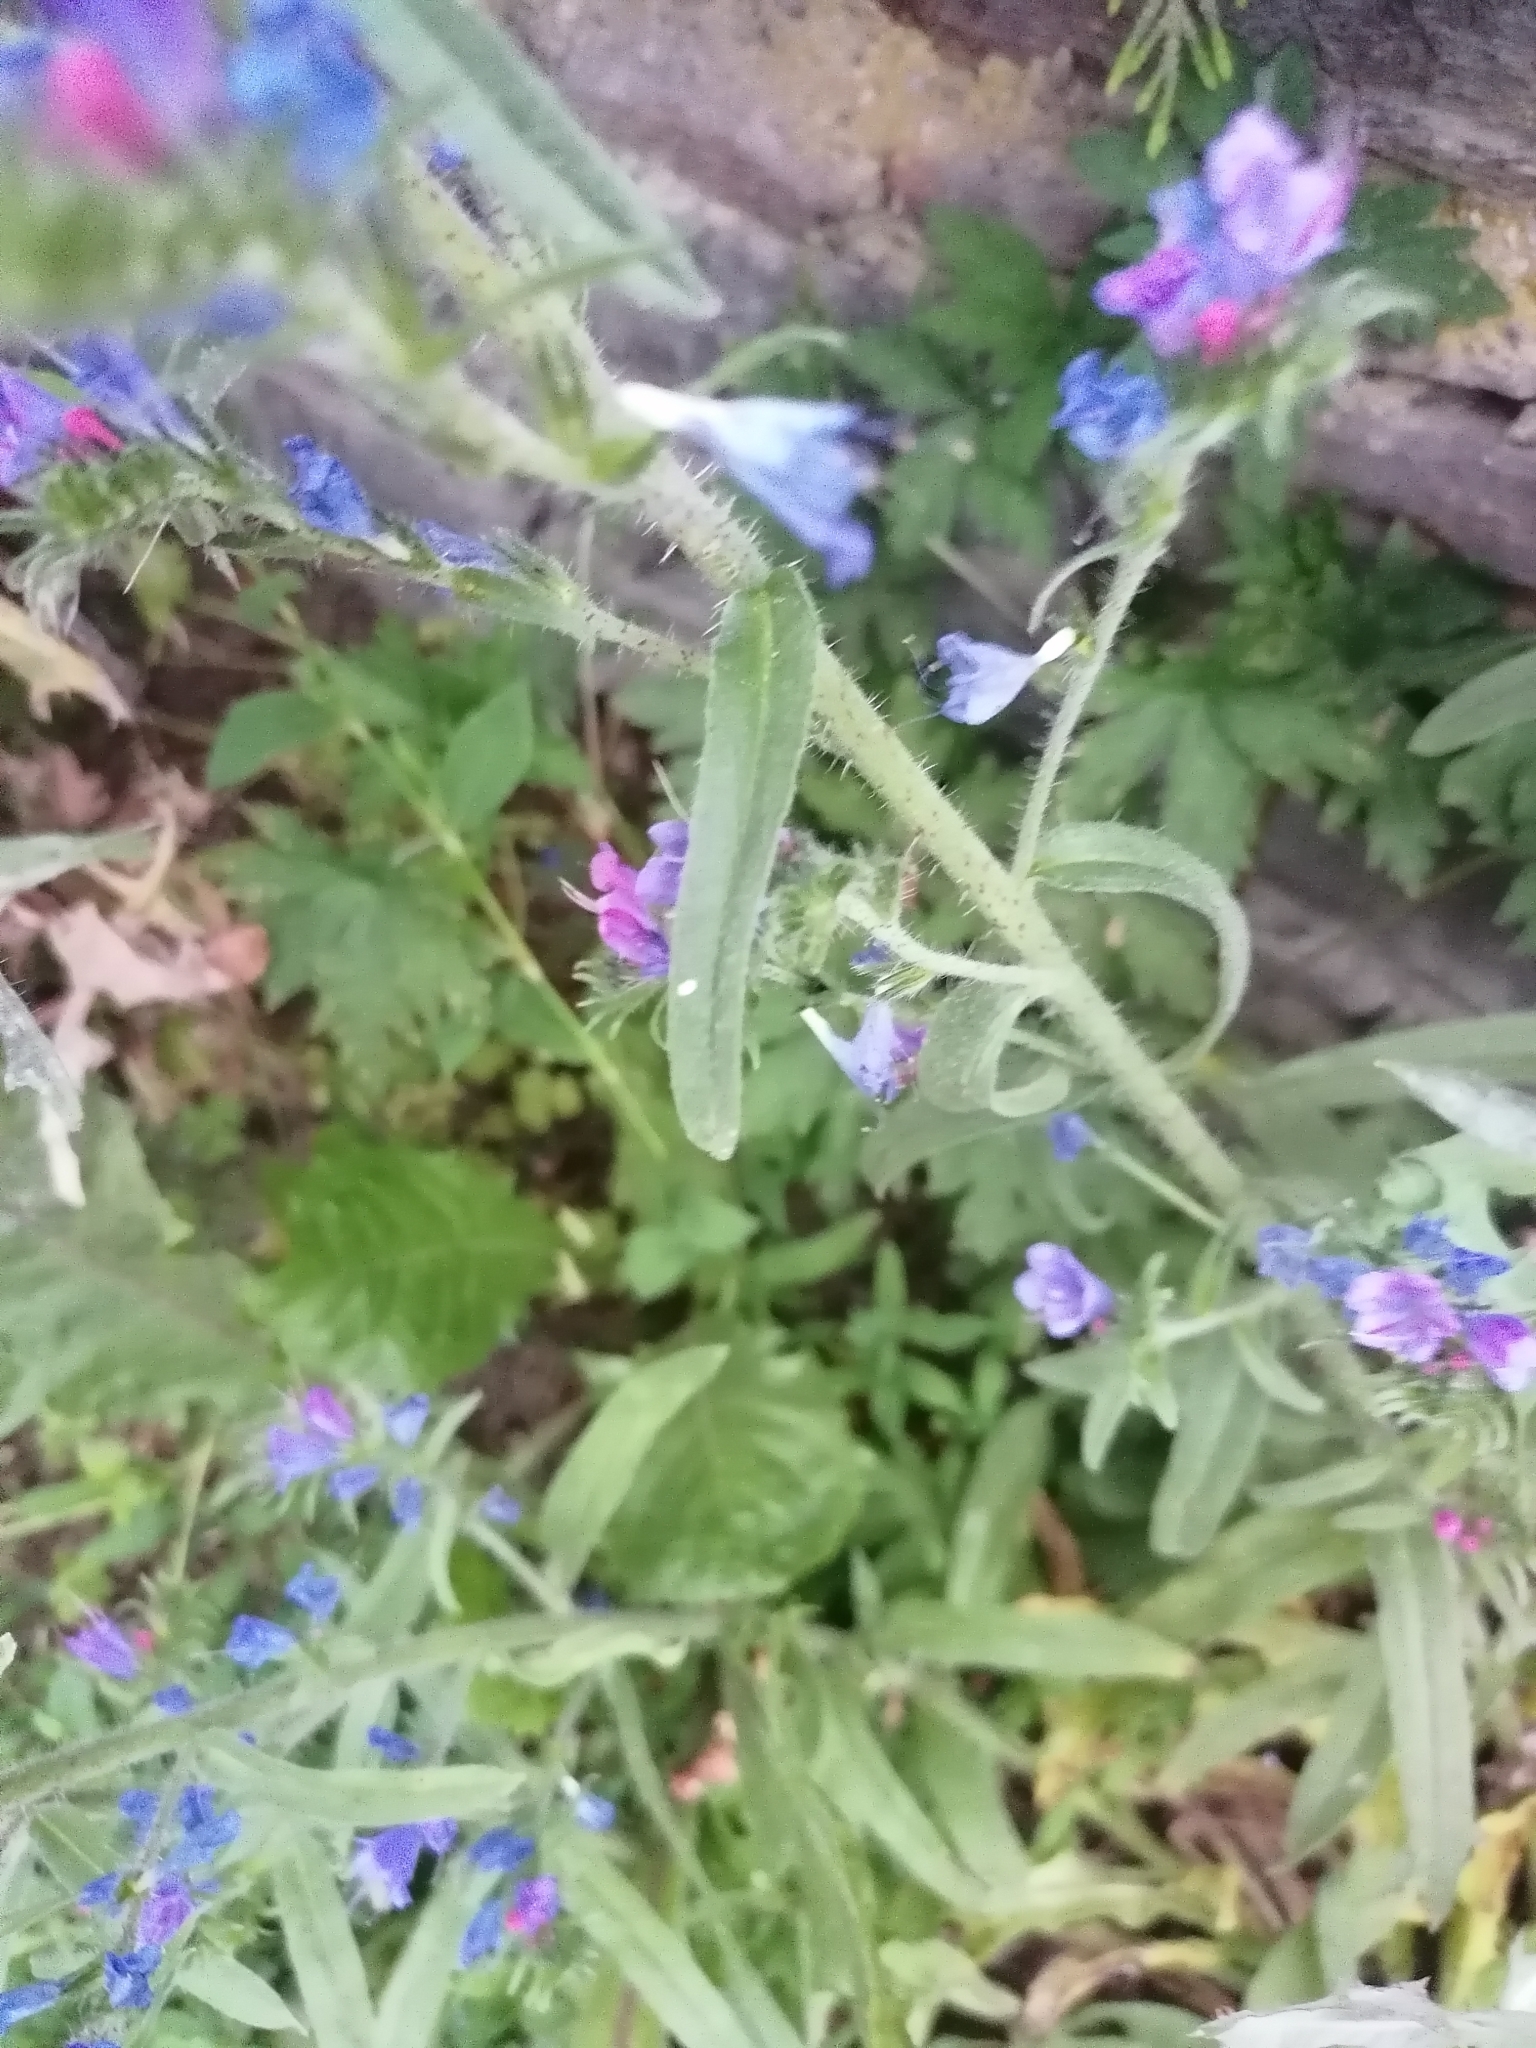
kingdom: Plantae
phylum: Tracheophyta
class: Magnoliopsida
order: Boraginales
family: Boraginaceae
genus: Echium
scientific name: Echium vulgare
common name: Common viper's bugloss
